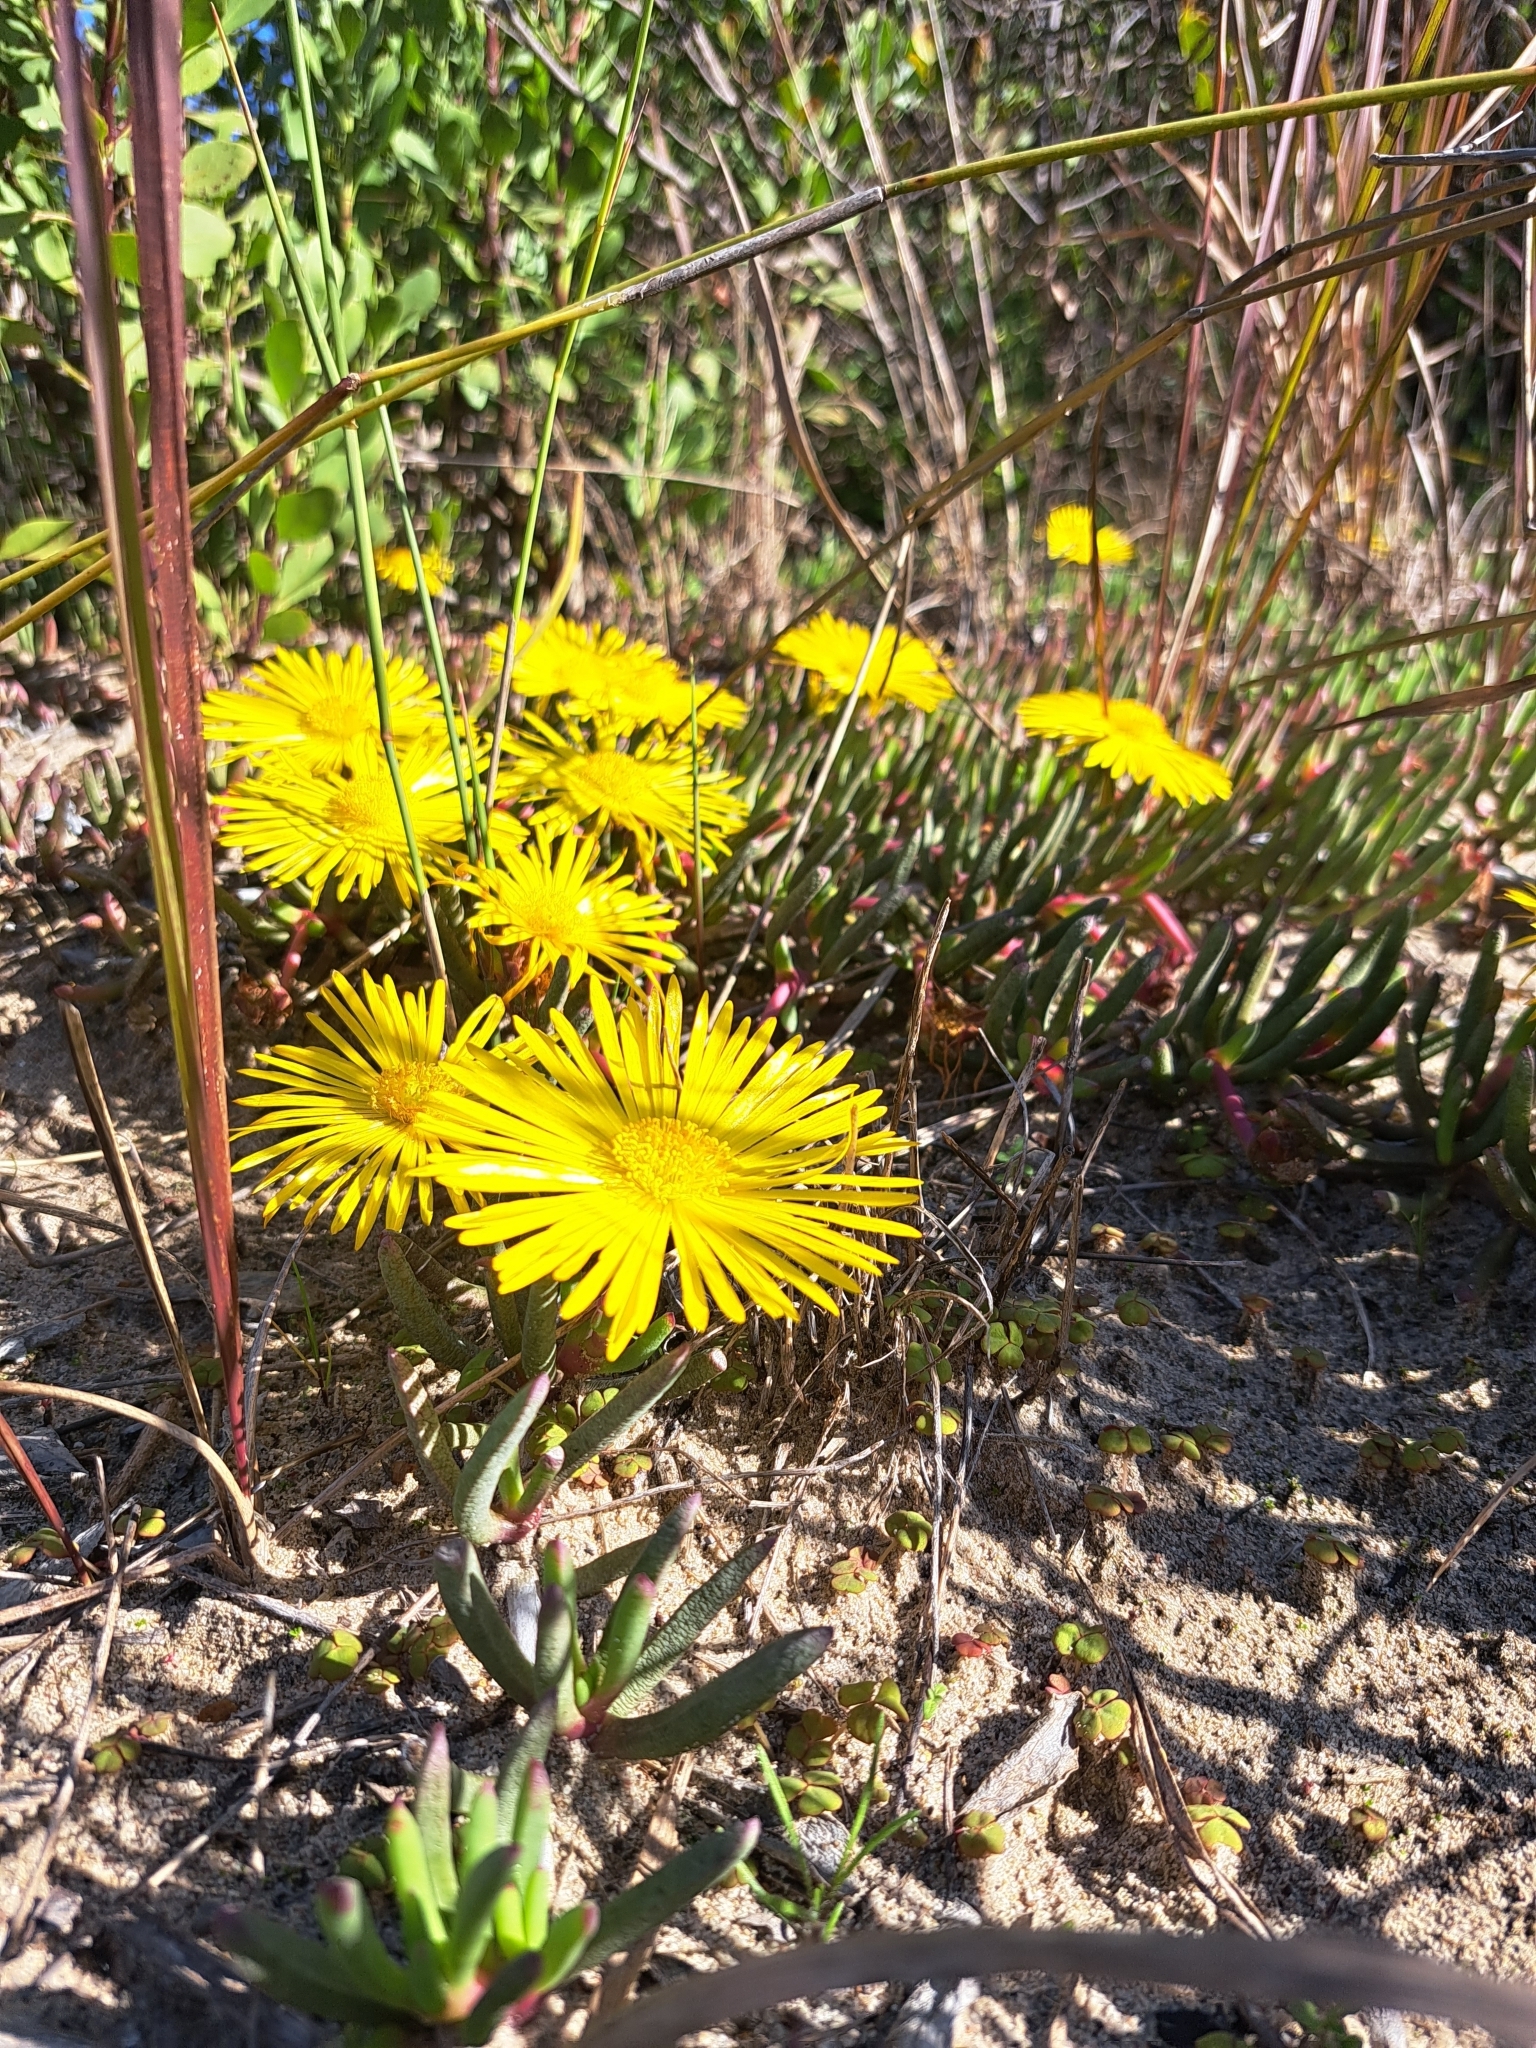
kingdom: Plantae
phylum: Tracheophyta
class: Magnoliopsida
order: Caryophyllales
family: Aizoaceae
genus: Jordaaniella
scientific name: Jordaaniella dubia
